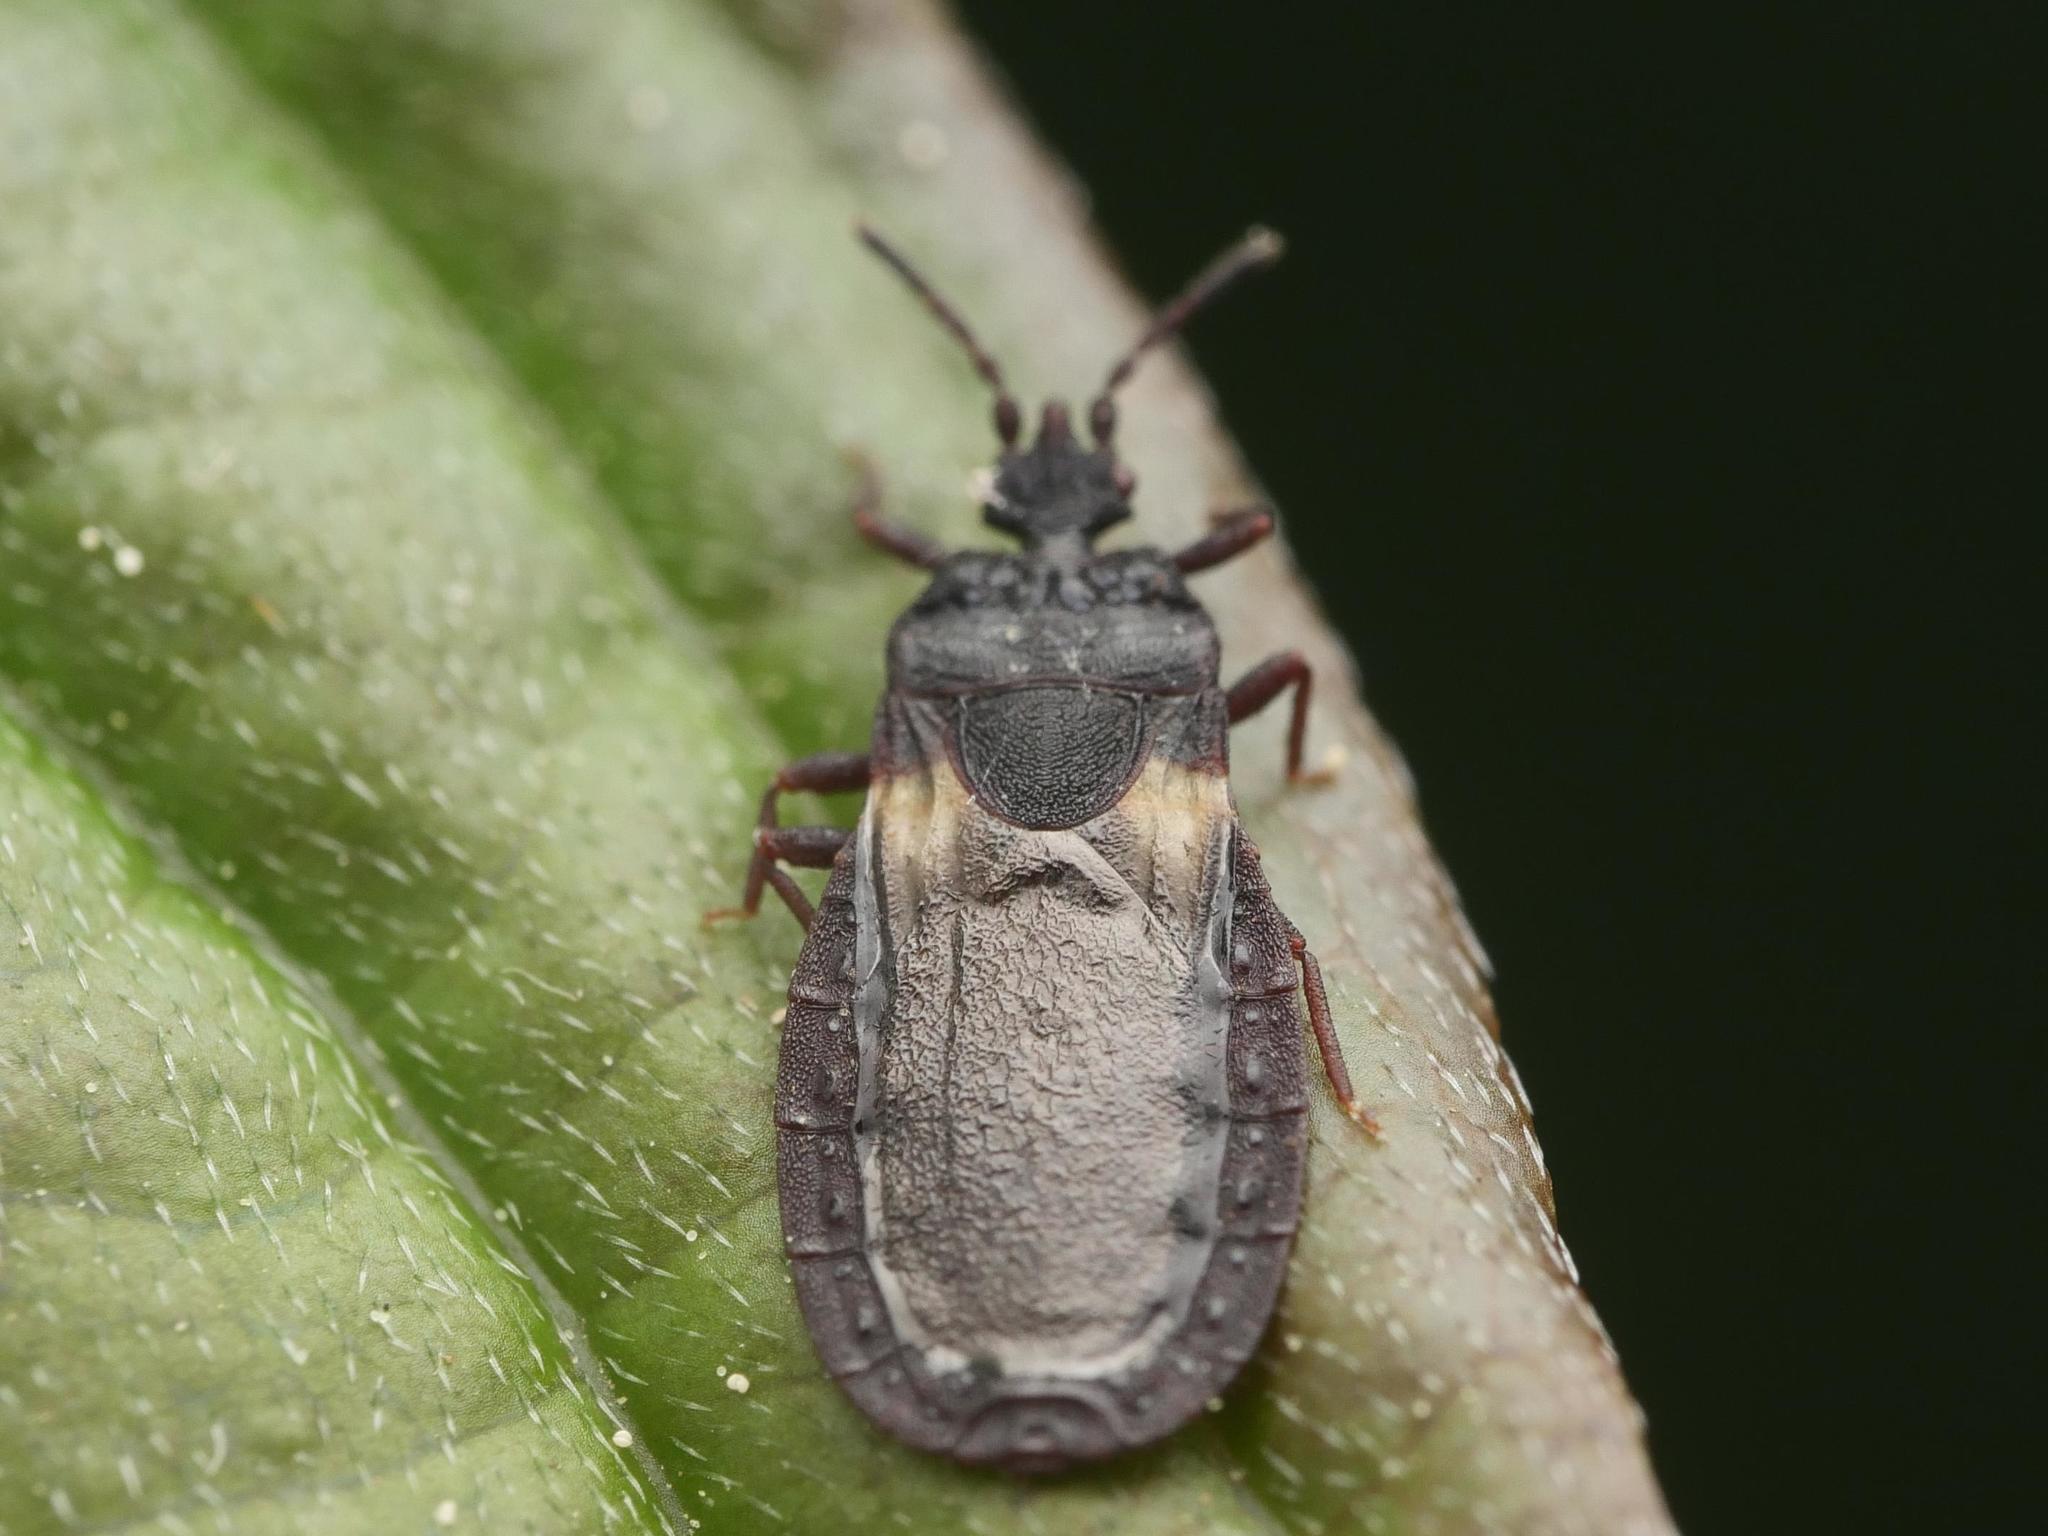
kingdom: Animalia
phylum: Arthropoda
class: Insecta
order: Hemiptera
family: Aradidae
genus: Aneurus
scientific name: Aneurus avenius
